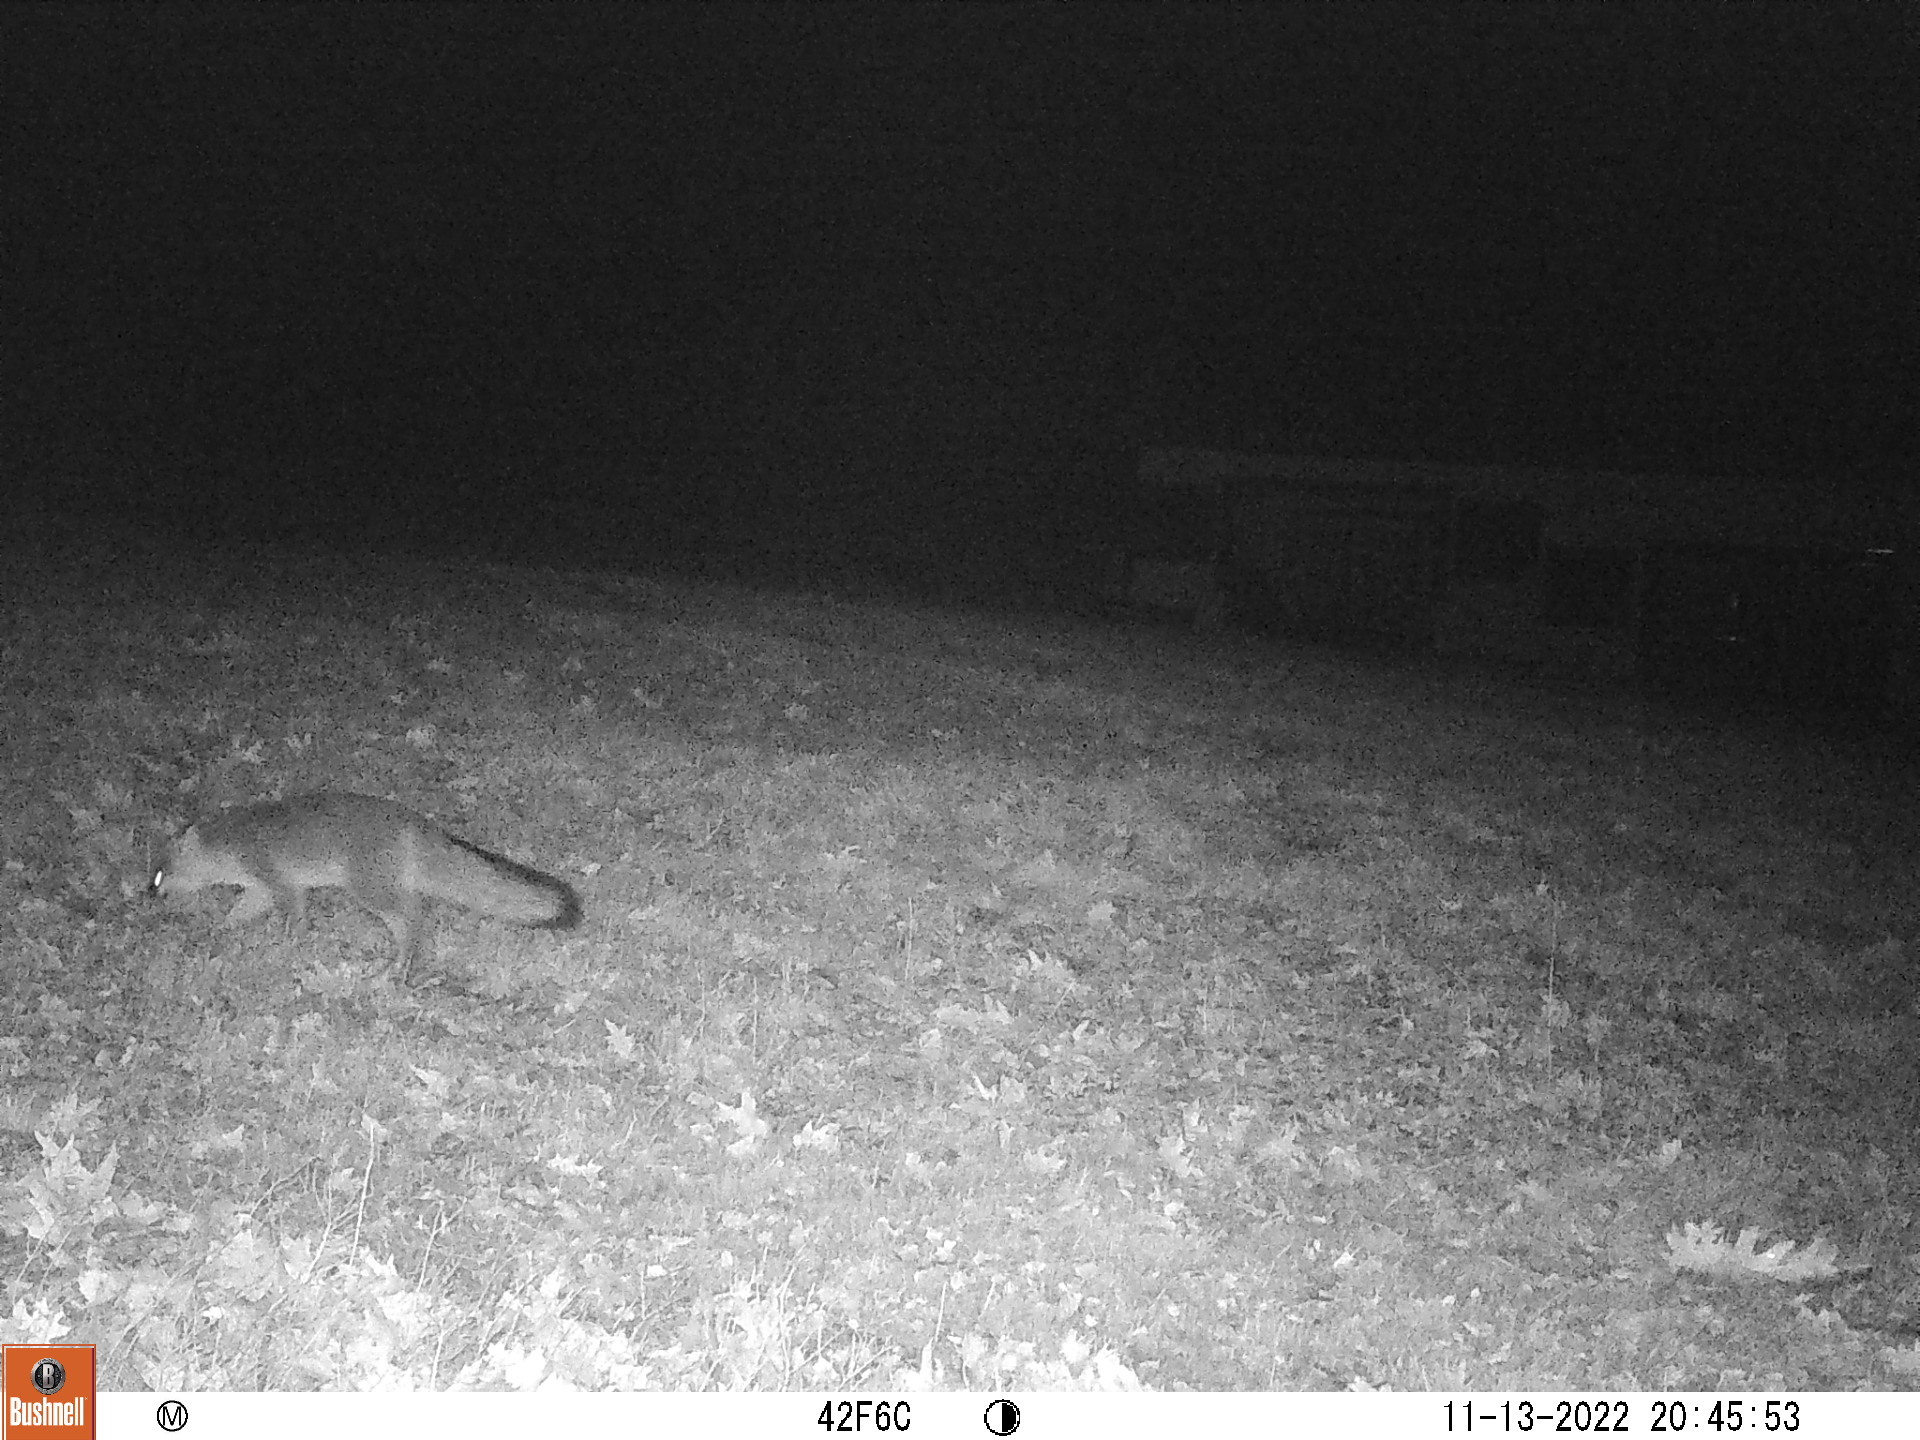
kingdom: Animalia
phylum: Chordata
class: Mammalia
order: Carnivora
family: Canidae
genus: Urocyon
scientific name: Urocyon cinereoargenteus
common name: Gray fox
